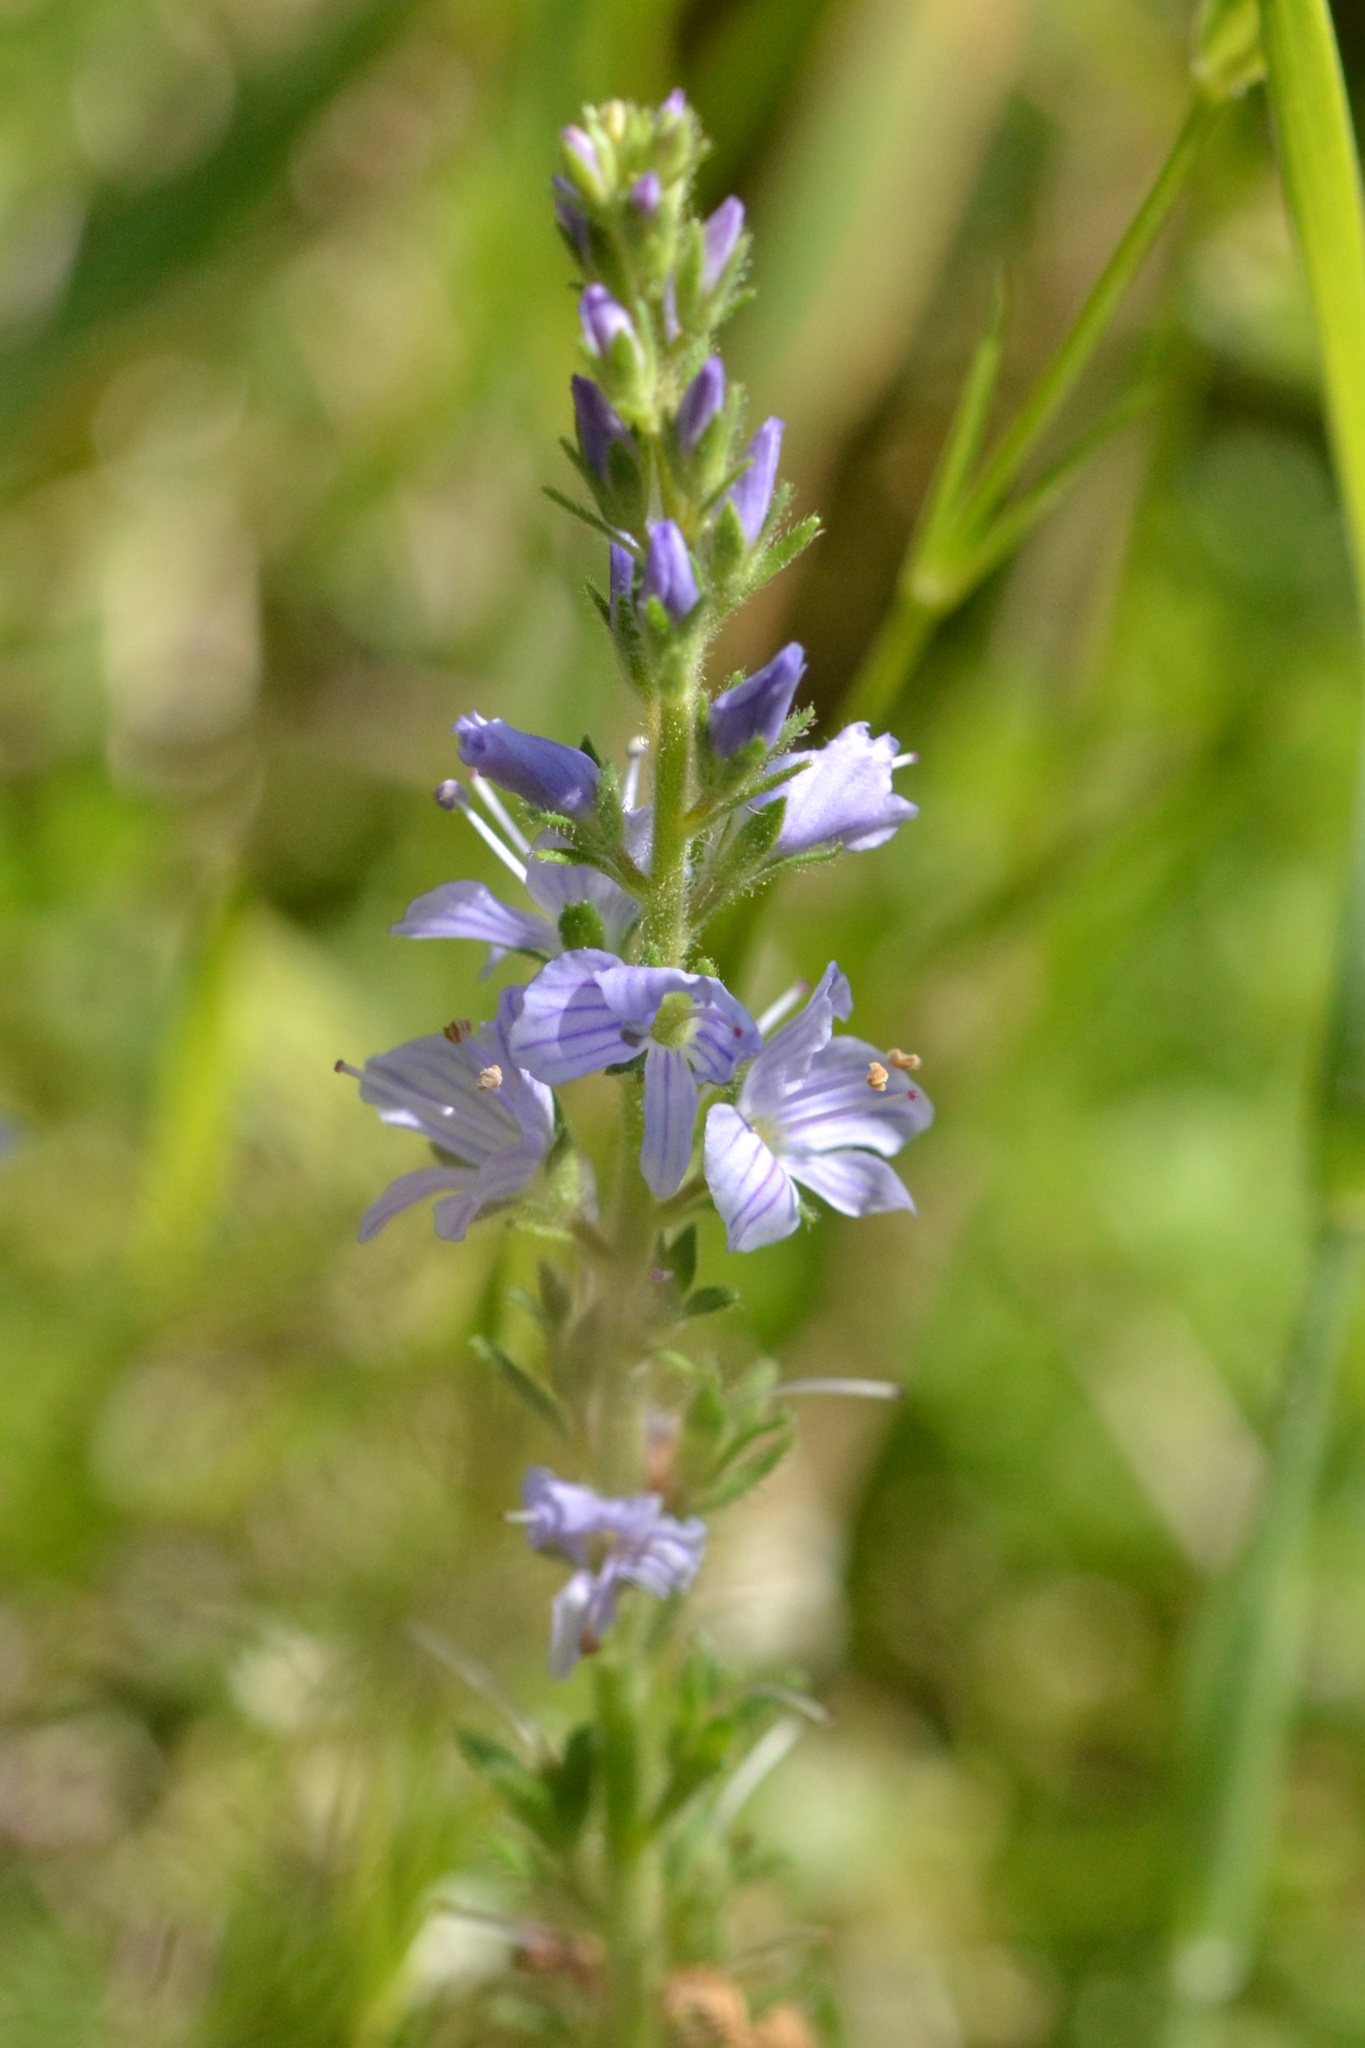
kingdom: Plantae
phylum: Tracheophyta
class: Magnoliopsida
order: Lamiales
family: Plantaginaceae
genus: Veronica
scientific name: Veronica officinalis
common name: Common speedwell
